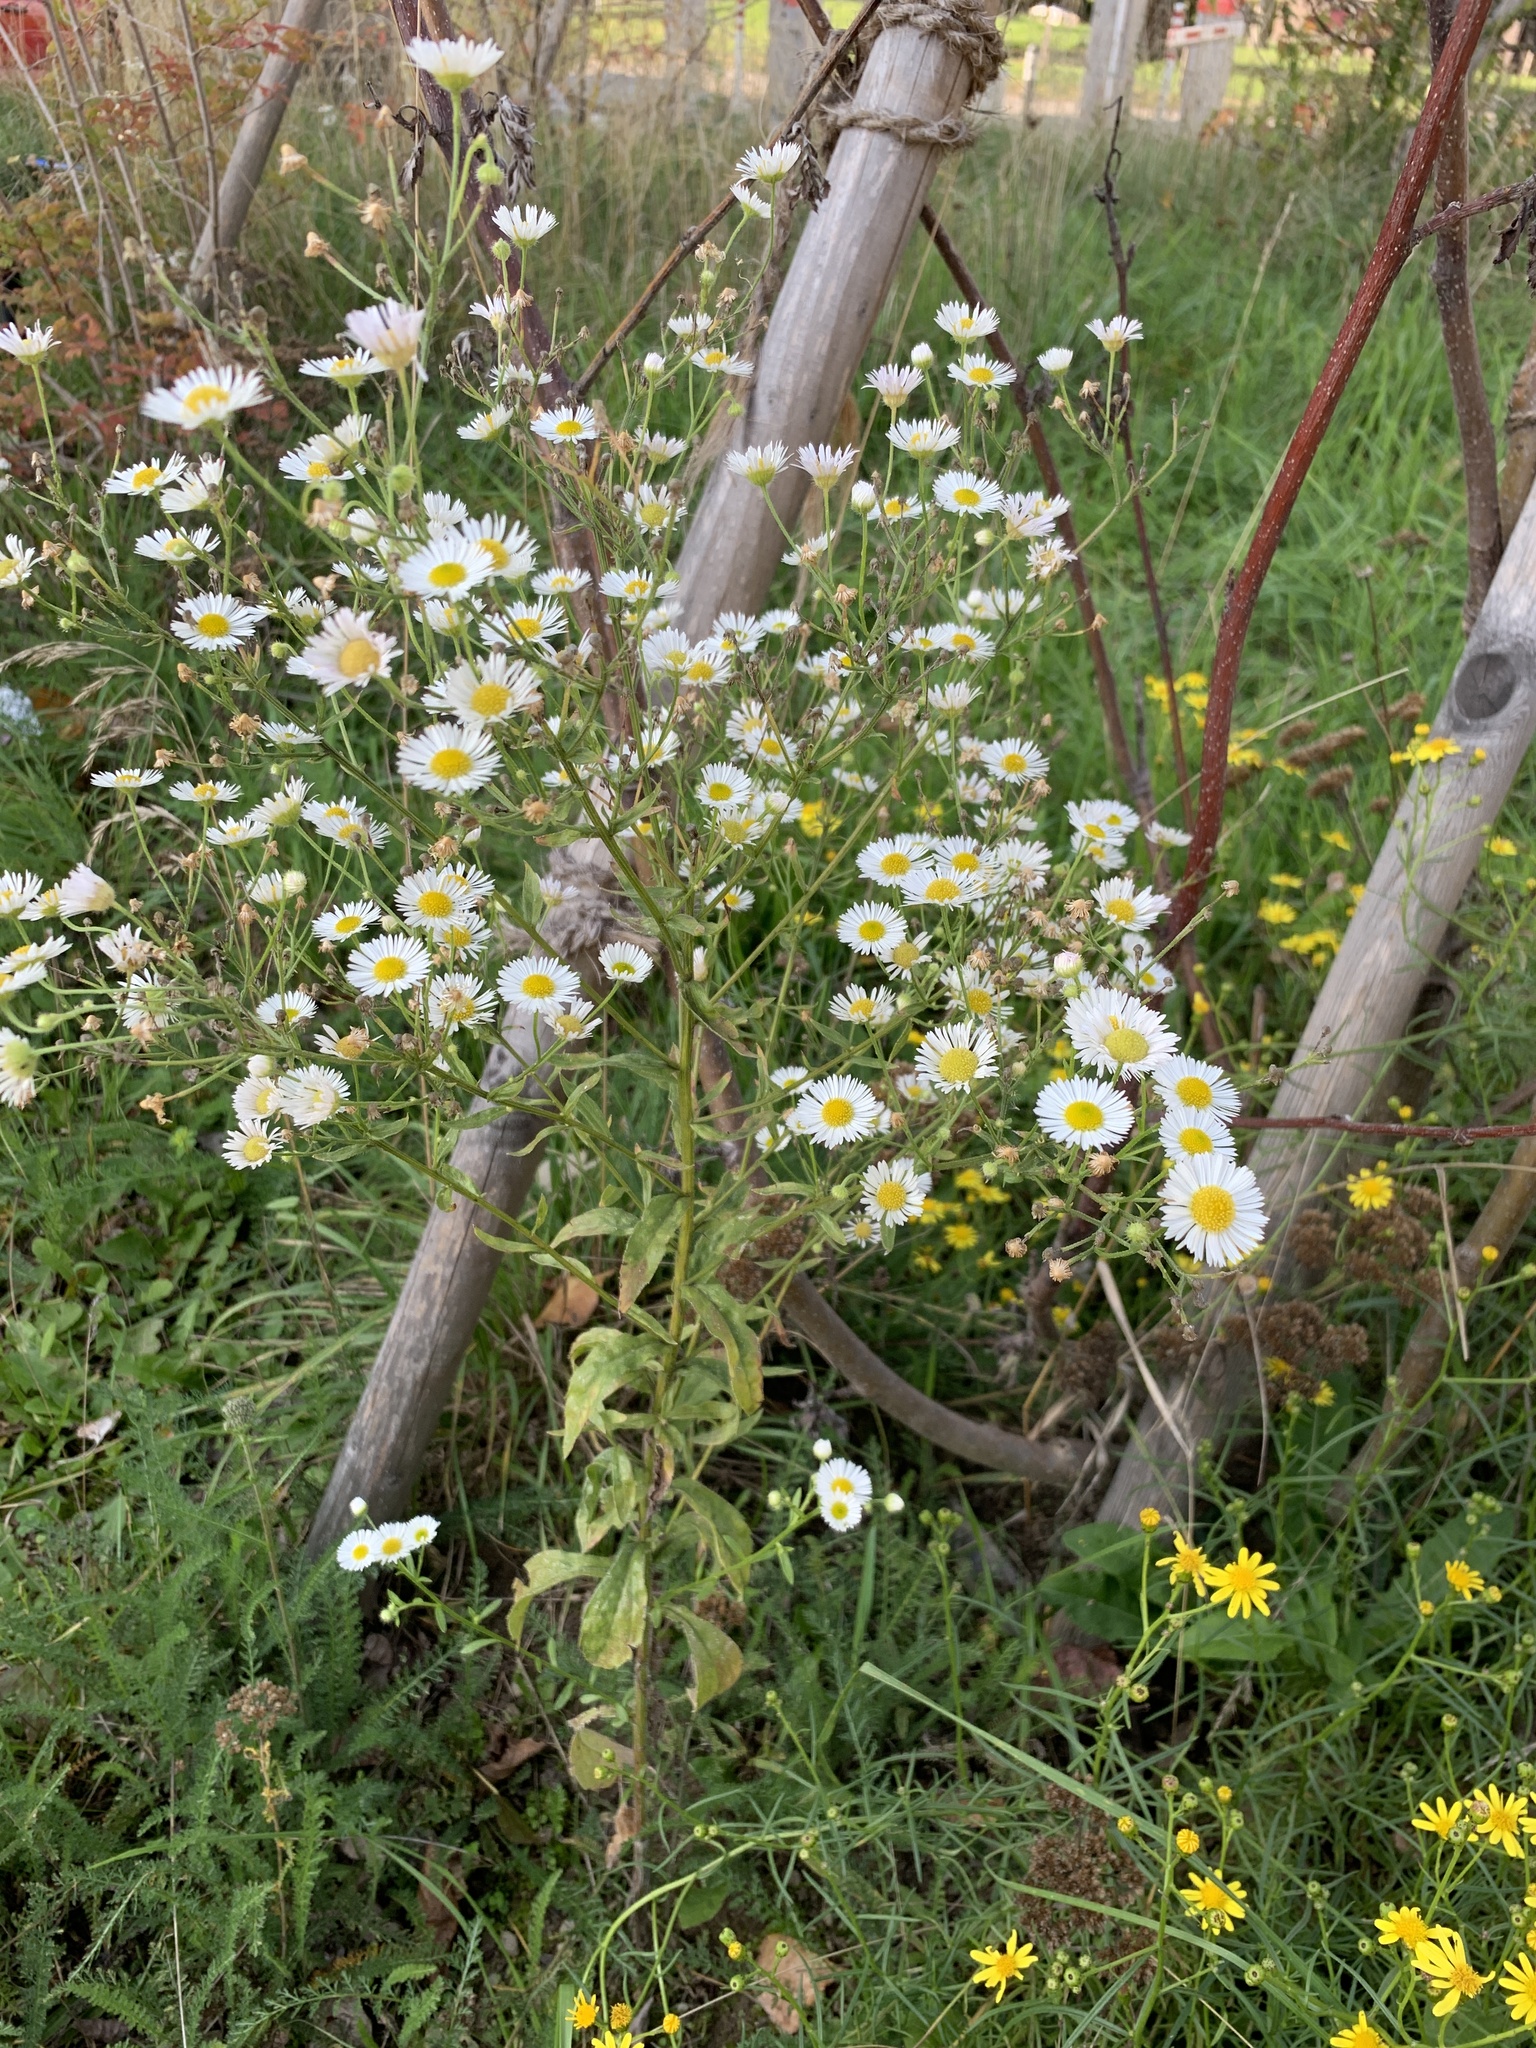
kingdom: Plantae
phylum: Tracheophyta
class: Magnoliopsida
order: Asterales
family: Asteraceae
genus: Erigeron
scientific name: Erigeron annuus
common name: Tall fleabane
